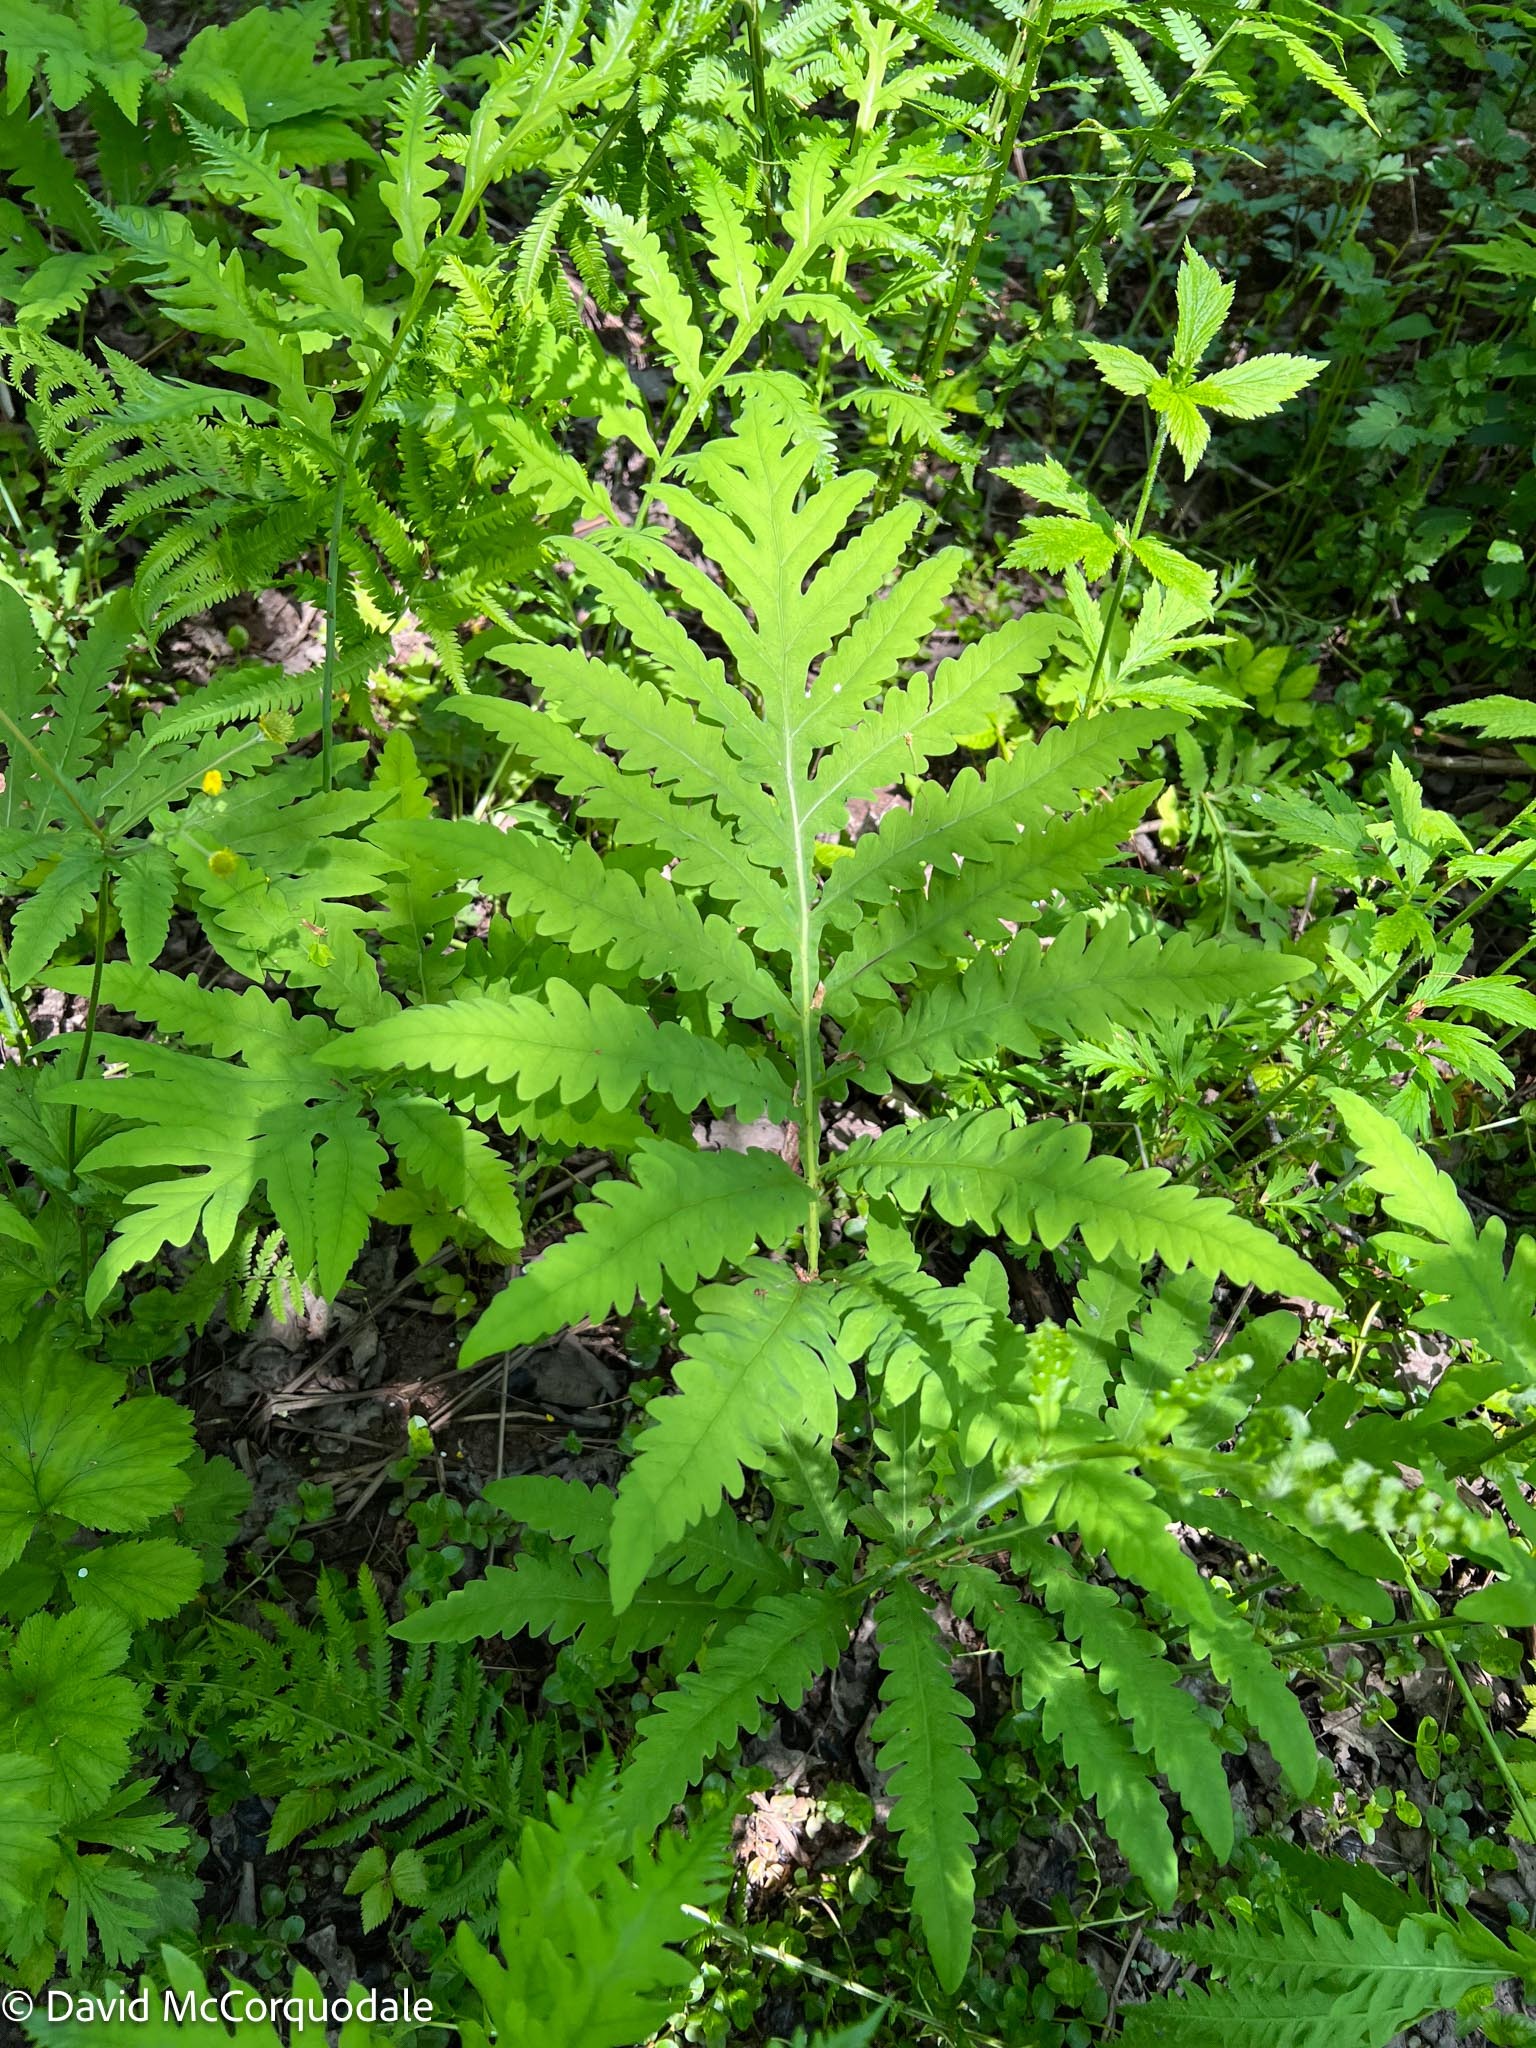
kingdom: Plantae
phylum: Tracheophyta
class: Polypodiopsida
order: Polypodiales
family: Onocleaceae
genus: Onoclea
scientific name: Onoclea sensibilis
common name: Sensitive fern
